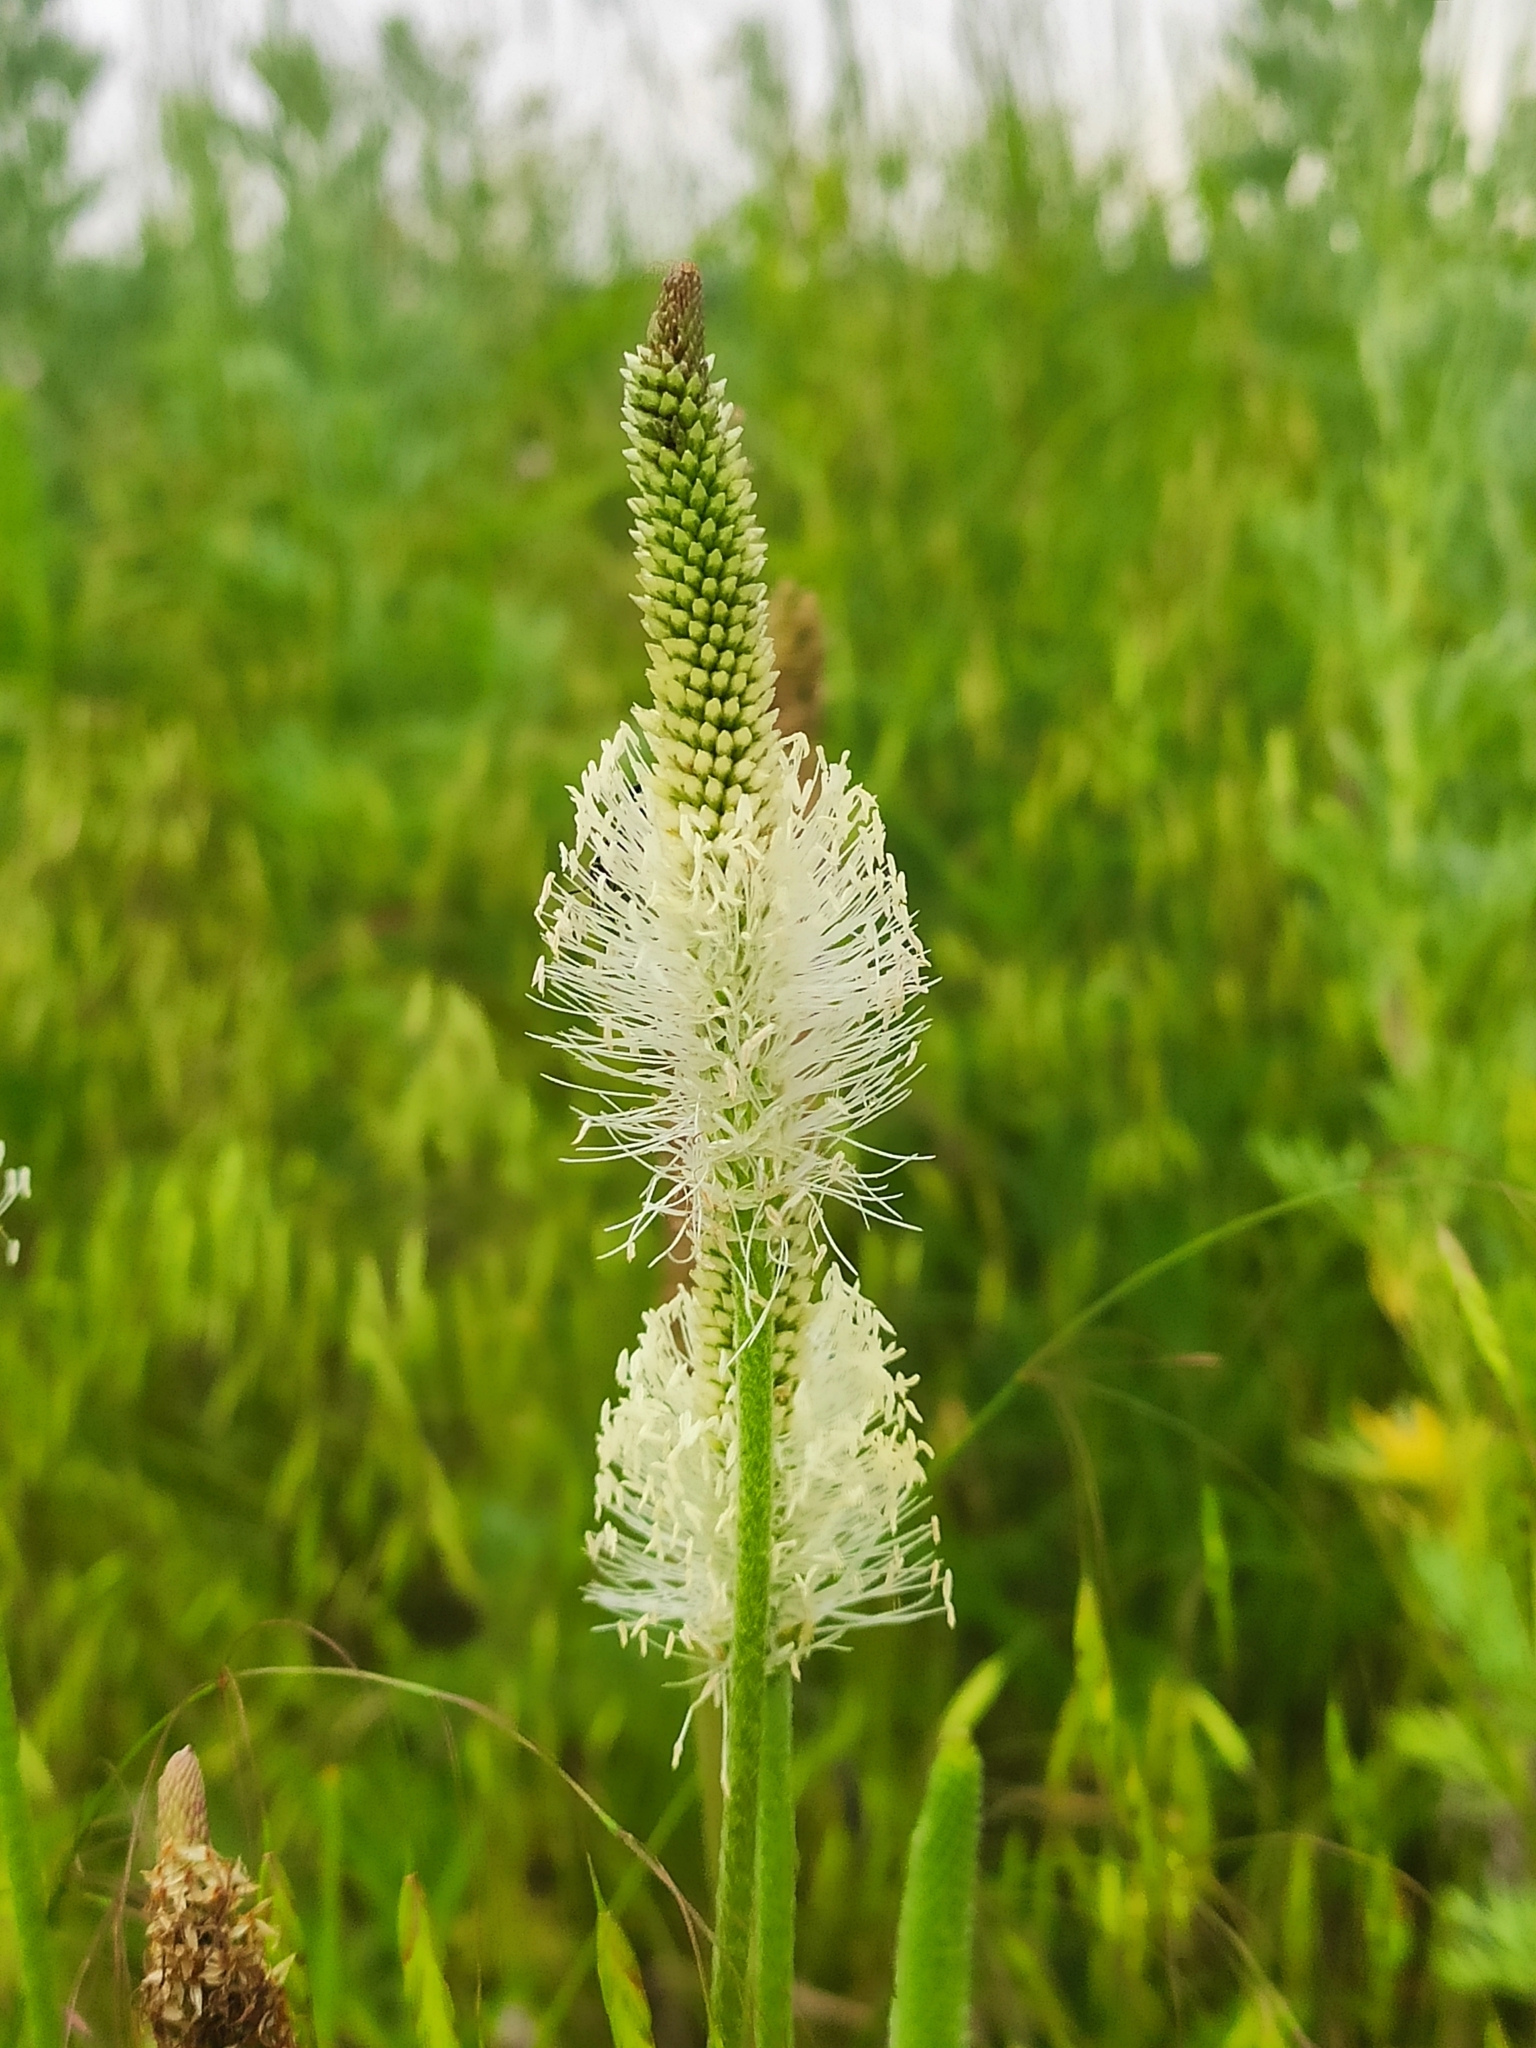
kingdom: Plantae
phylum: Tracheophyta
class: Magnoliopsida
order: Lamiales
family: Plantaginaceae
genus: Plantago
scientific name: Plantago urvillei
